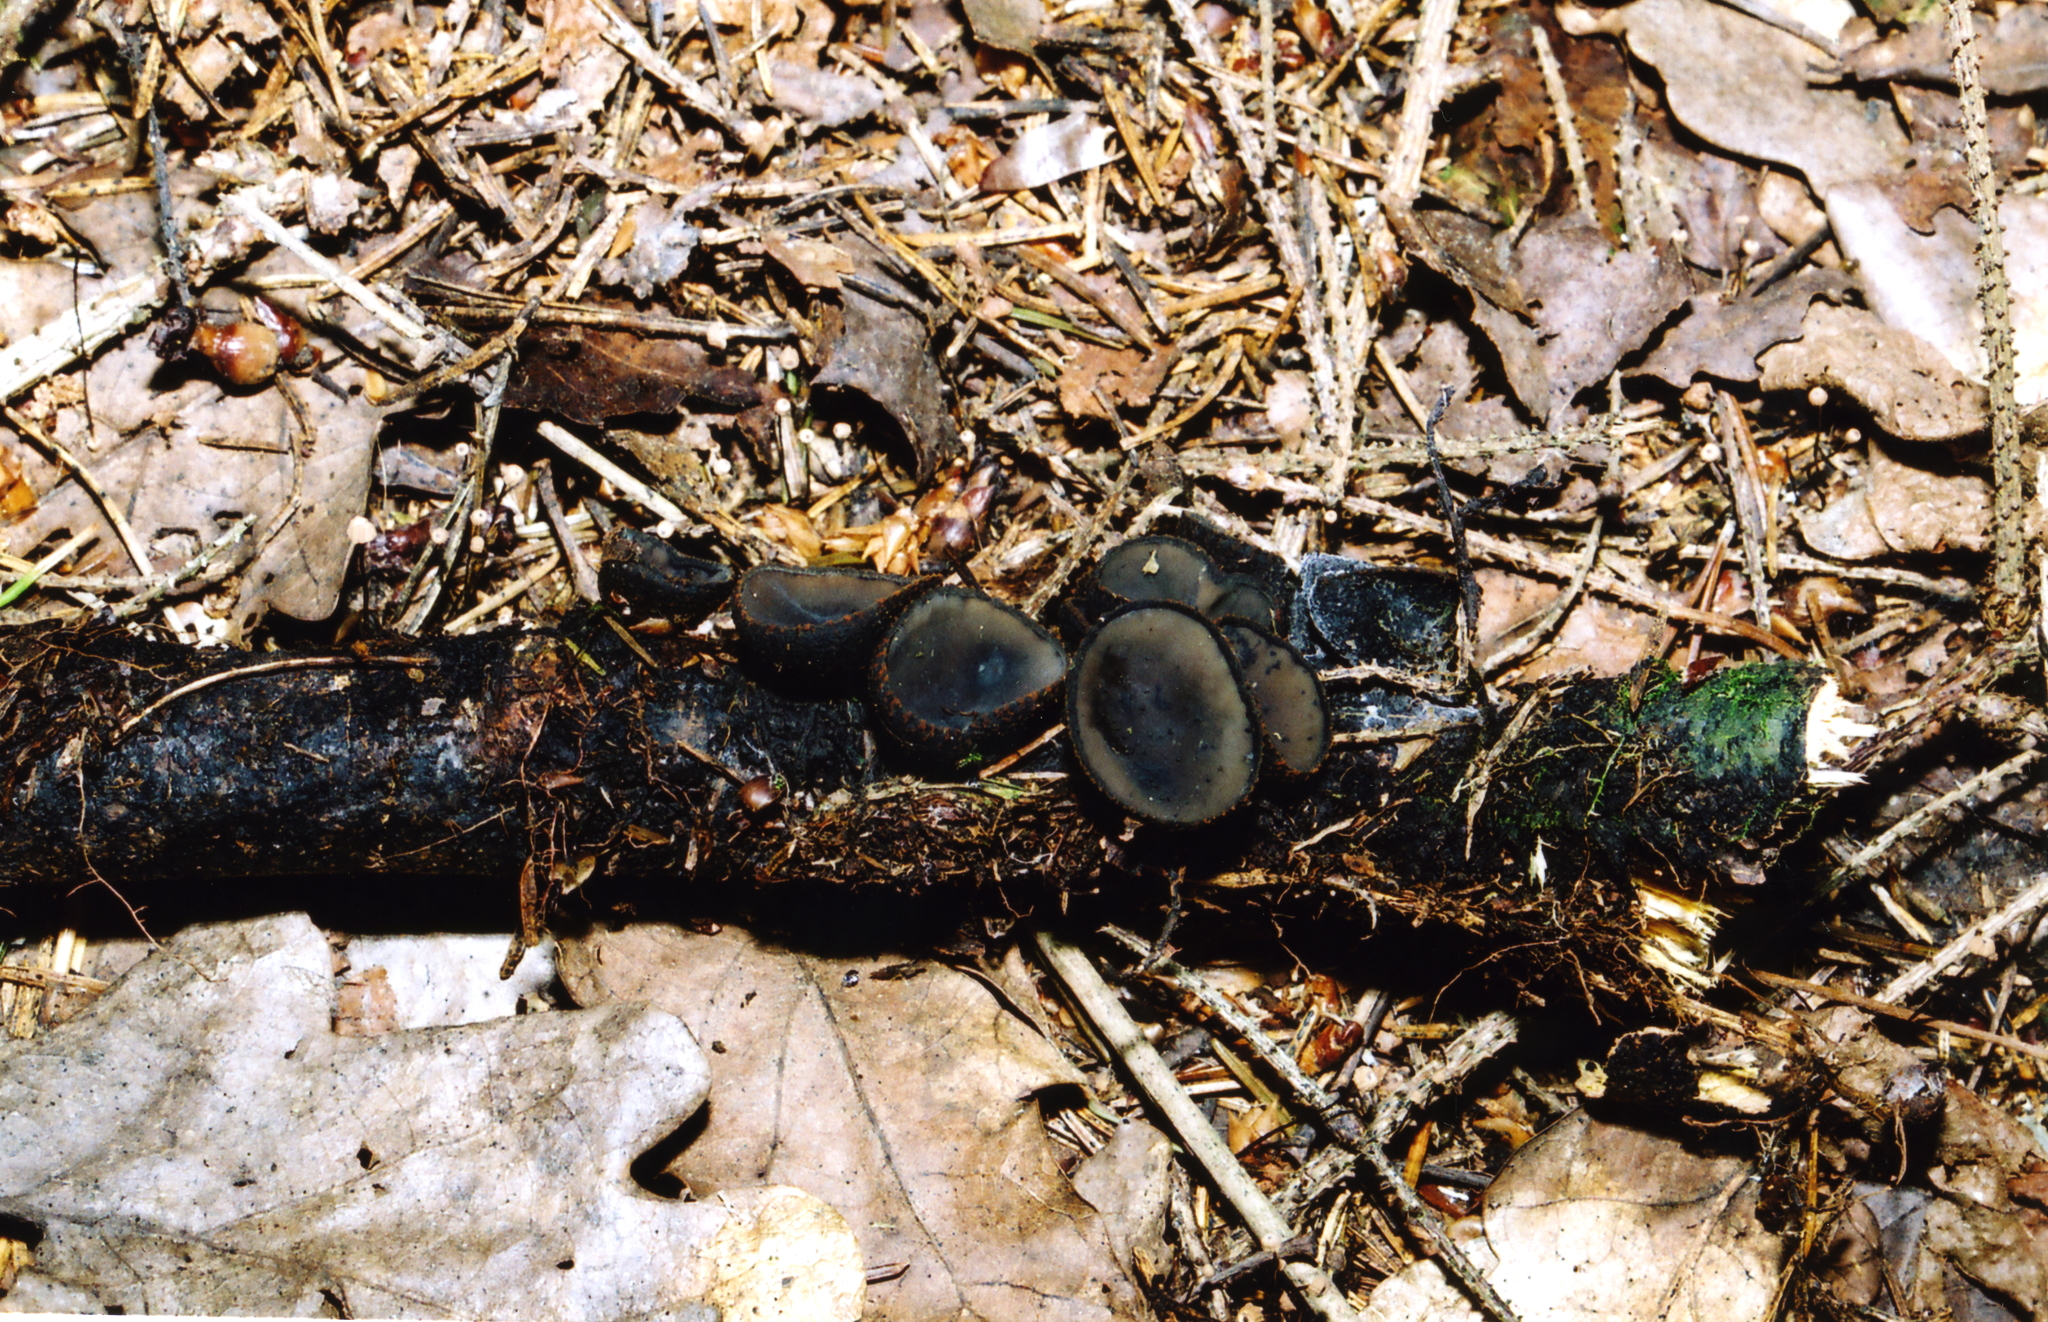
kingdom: Fungi
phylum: Ascomycota
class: Pezizomycetes
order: Pezizales
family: Sarcosomataceae
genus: Plectania
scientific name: Plectania melastoma
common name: Corona cup
